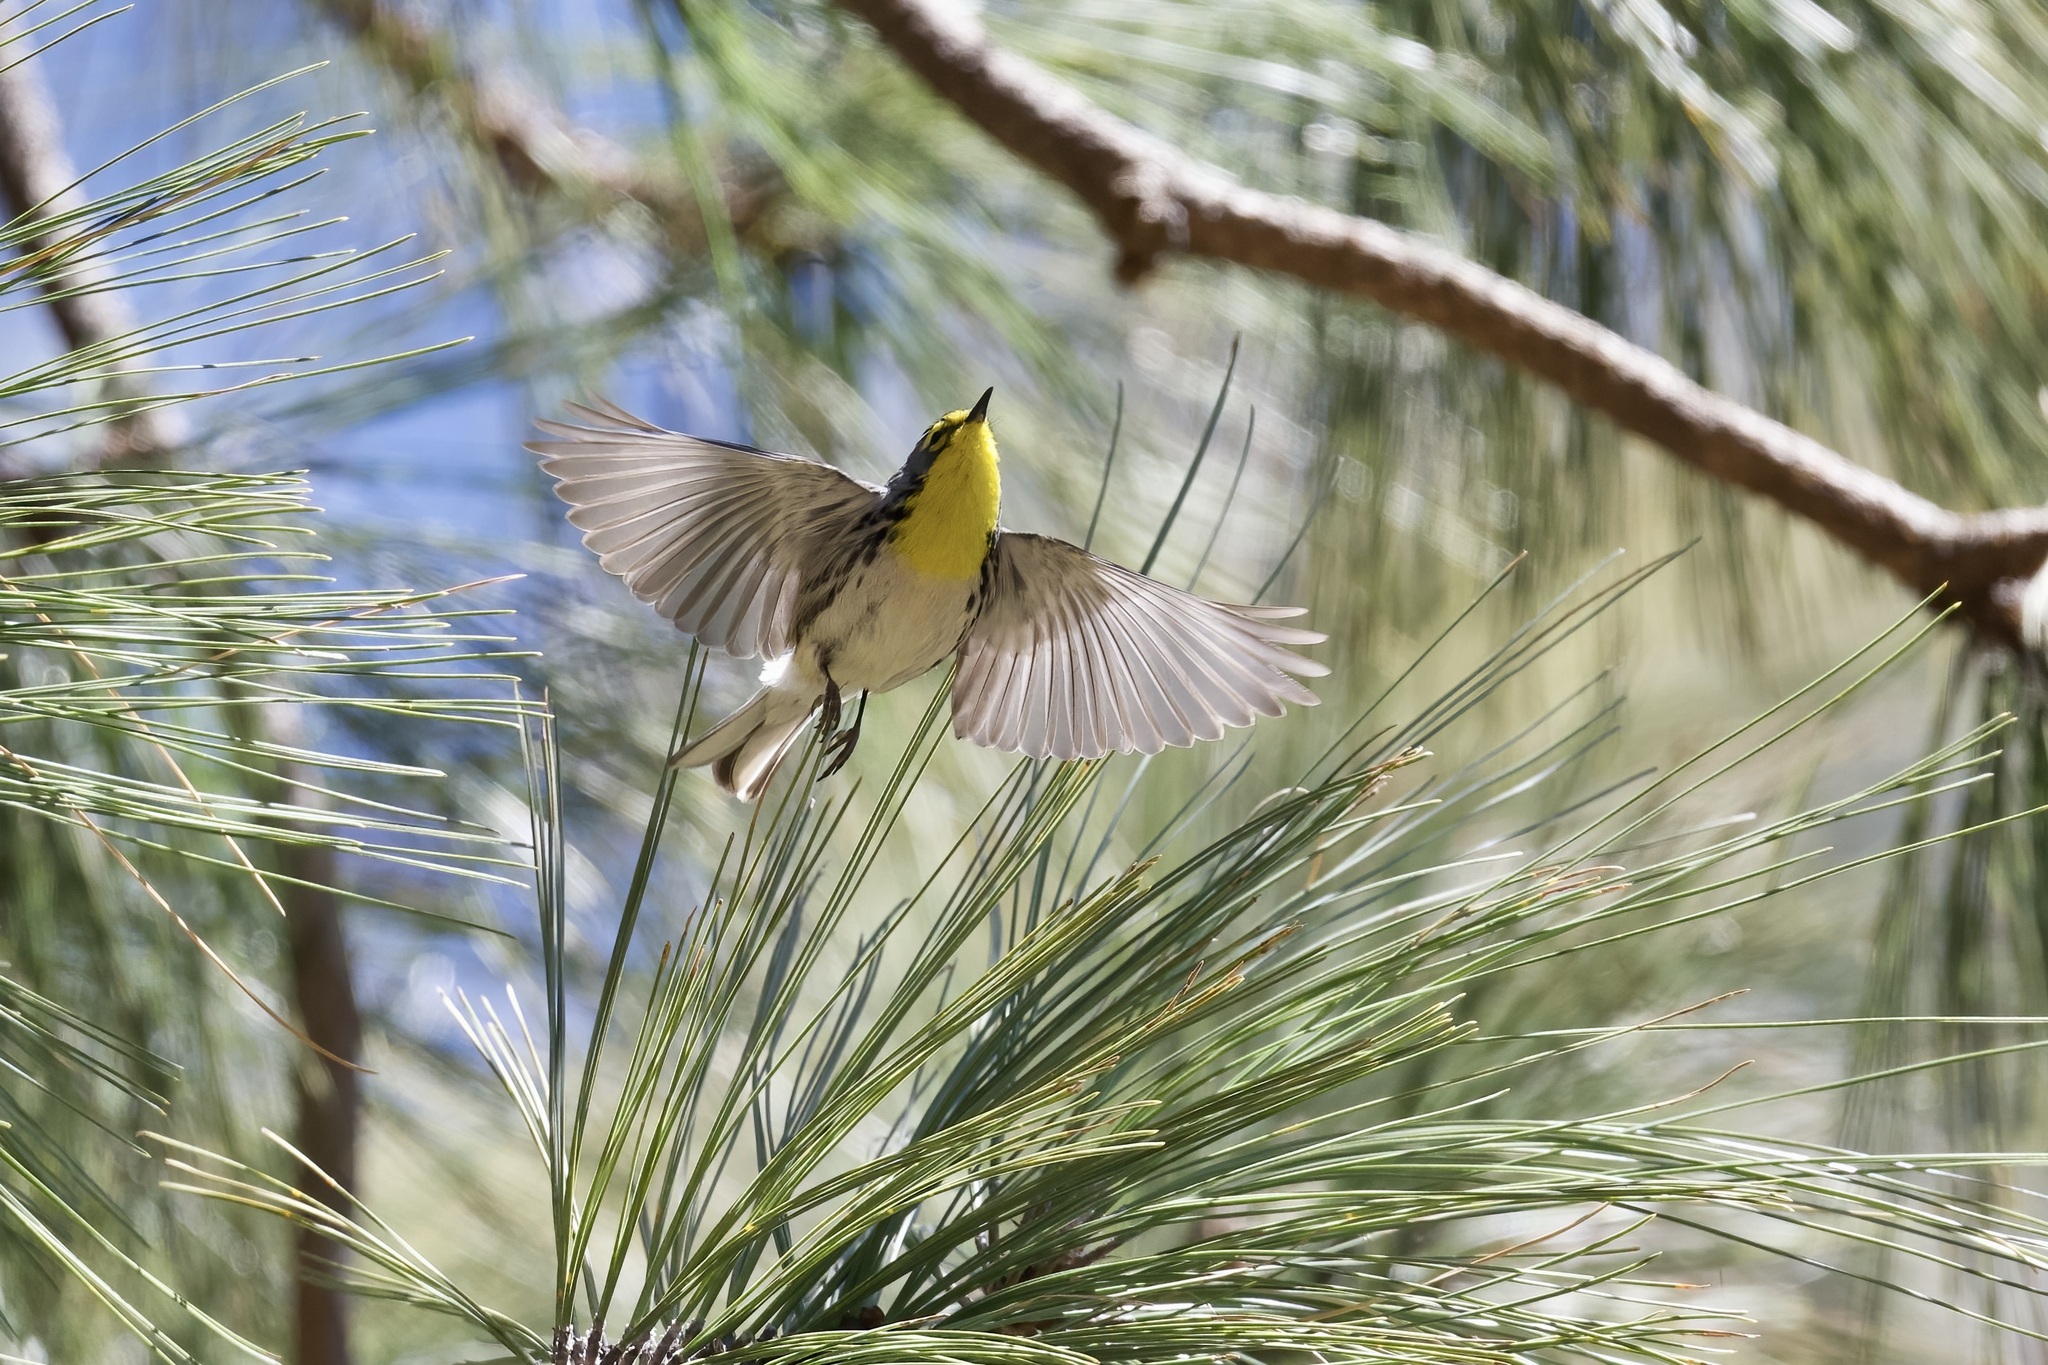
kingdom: Animalia
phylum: Chordata
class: Aves
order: Passeriformes
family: Parulidae
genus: Setophaga
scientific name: Setophaga graciae
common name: Grace's warbler
